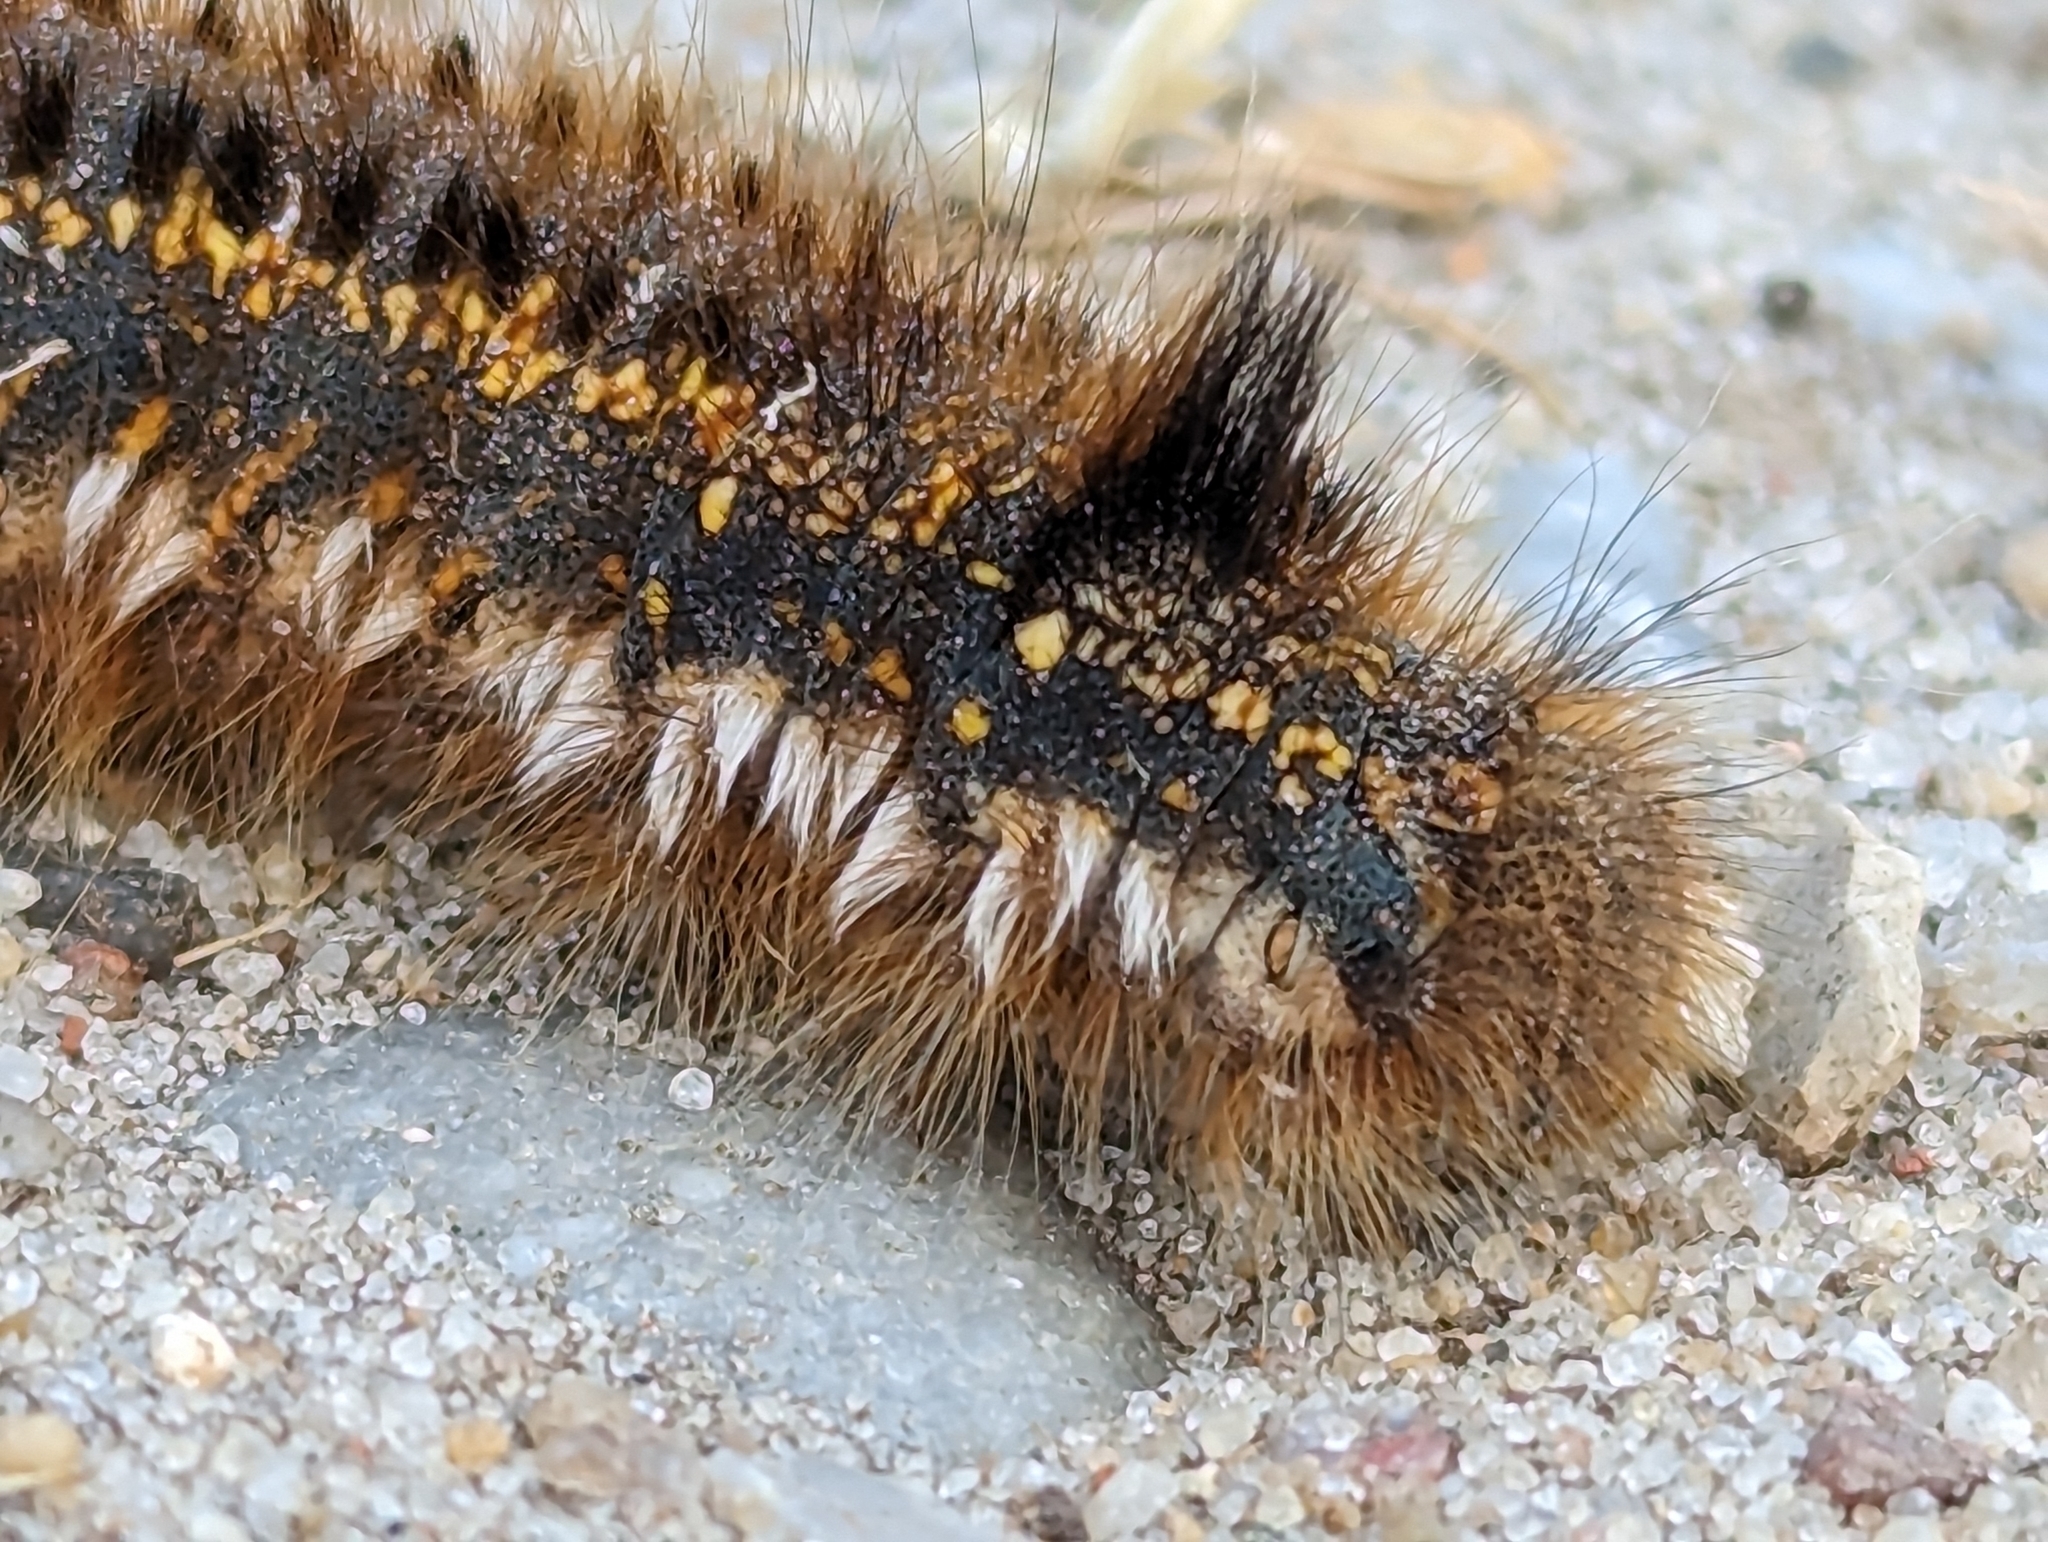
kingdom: Animalia
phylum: Arthropoda
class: Insecta
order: Lepidoptera
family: Lasiocampidae
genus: Euthrix
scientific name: Euthrix potatoria
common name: Drinker
